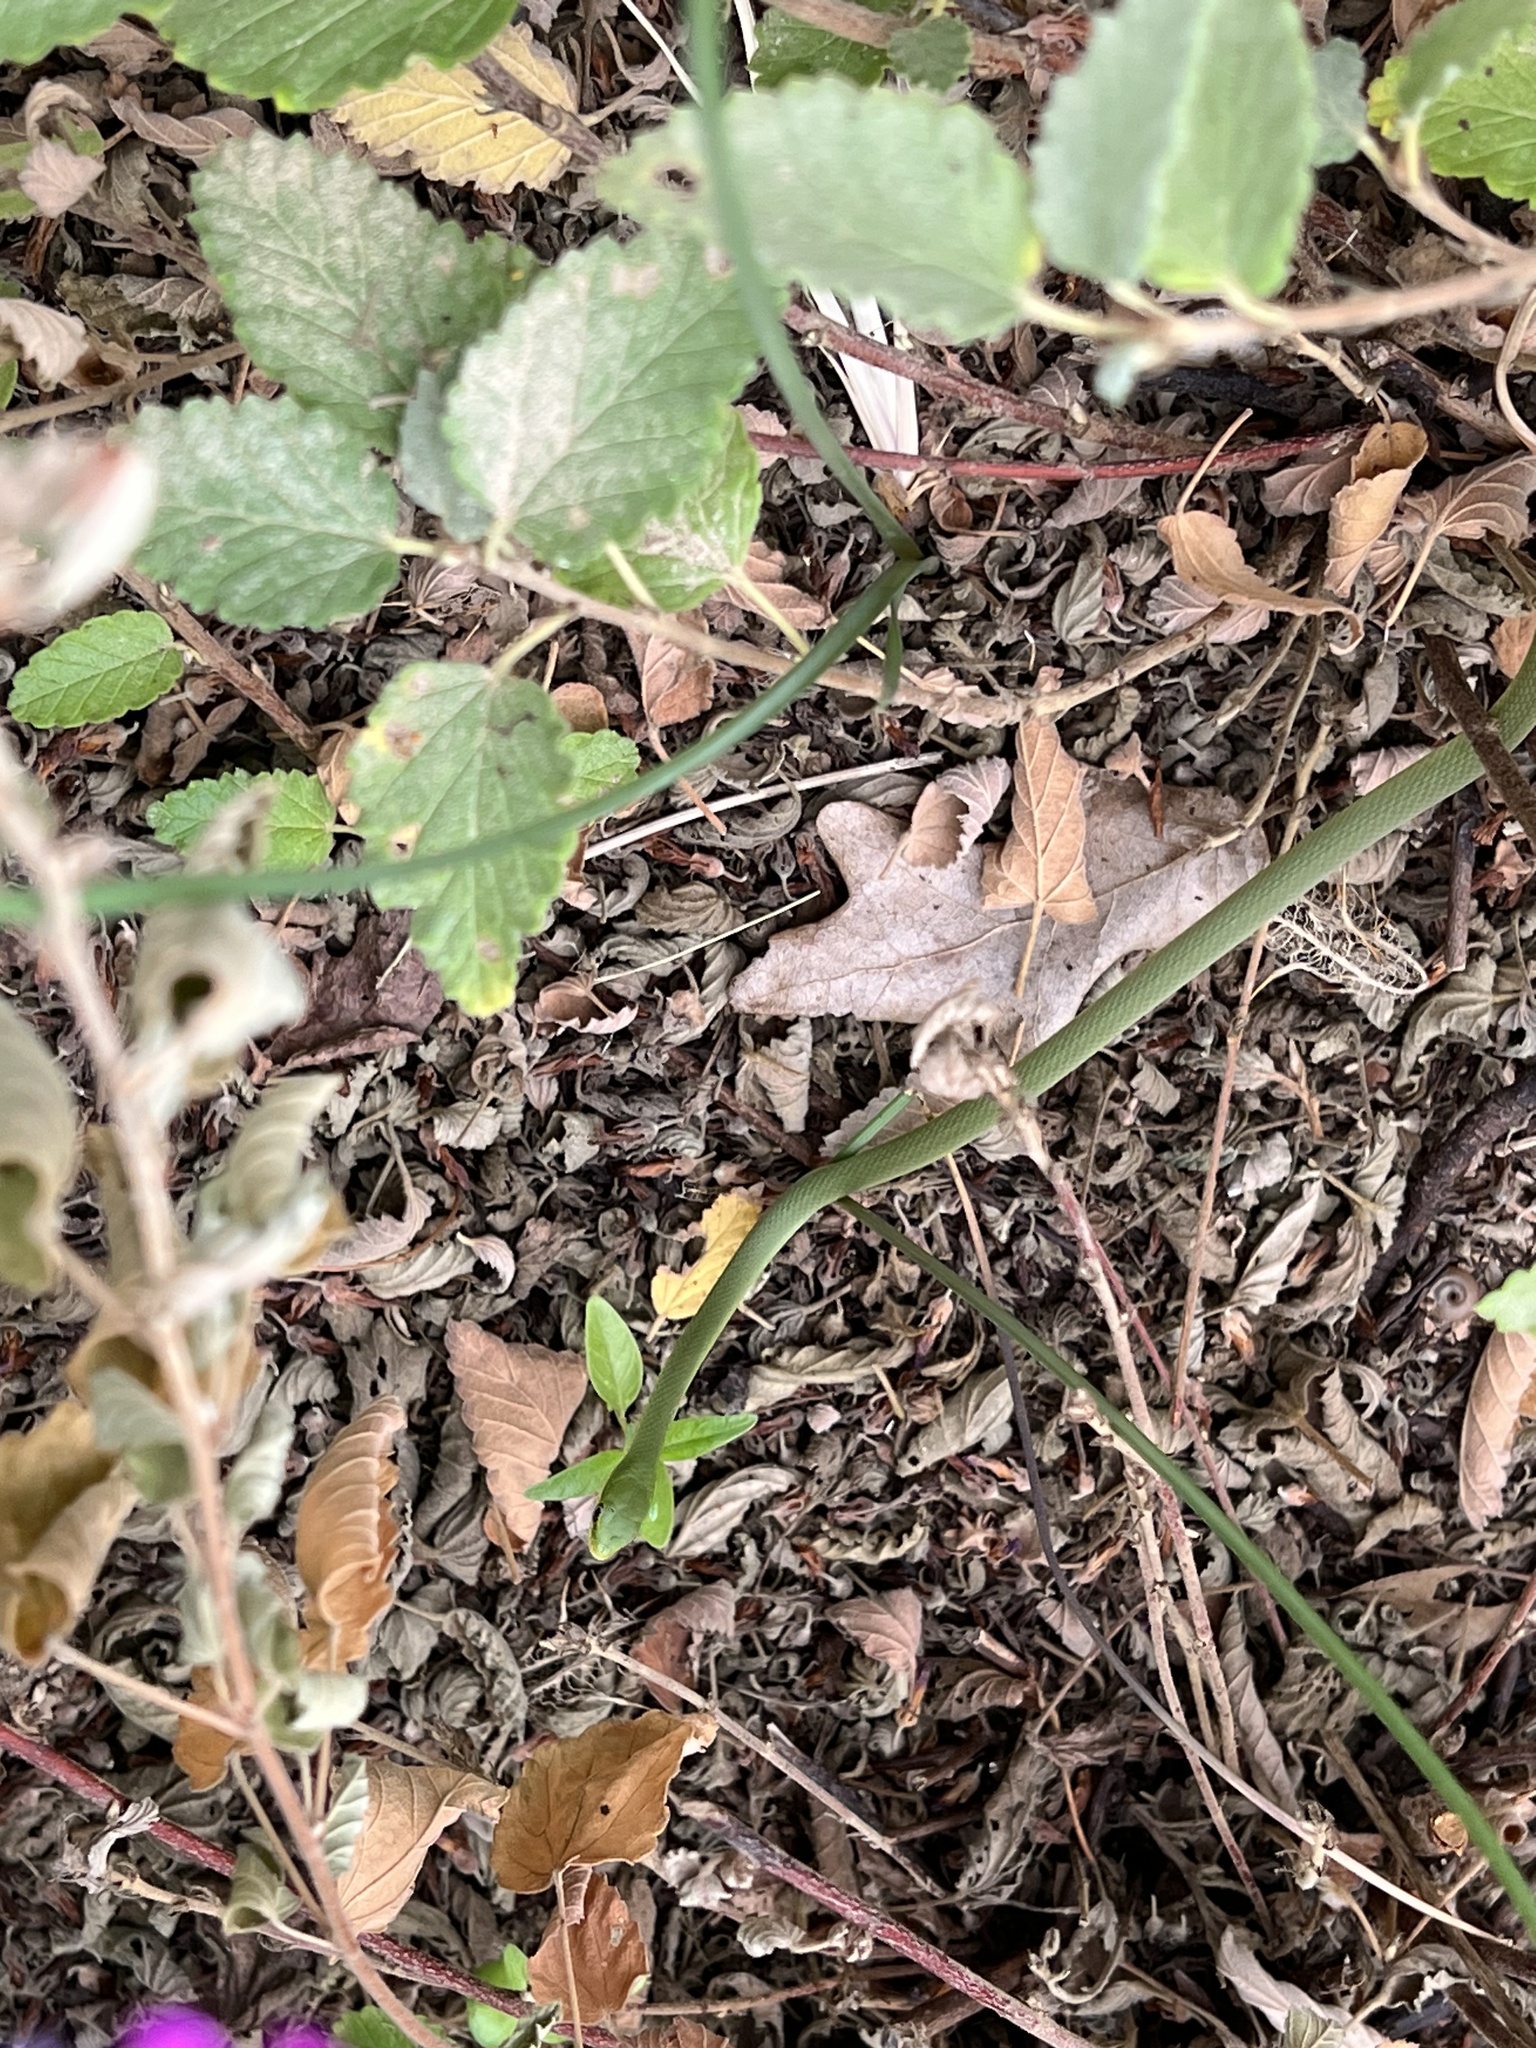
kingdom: Animalia
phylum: Chordata
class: Squamata
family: Colubridae
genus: Opheodrys
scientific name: Opheodrys aestivus
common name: Rough greensnake
